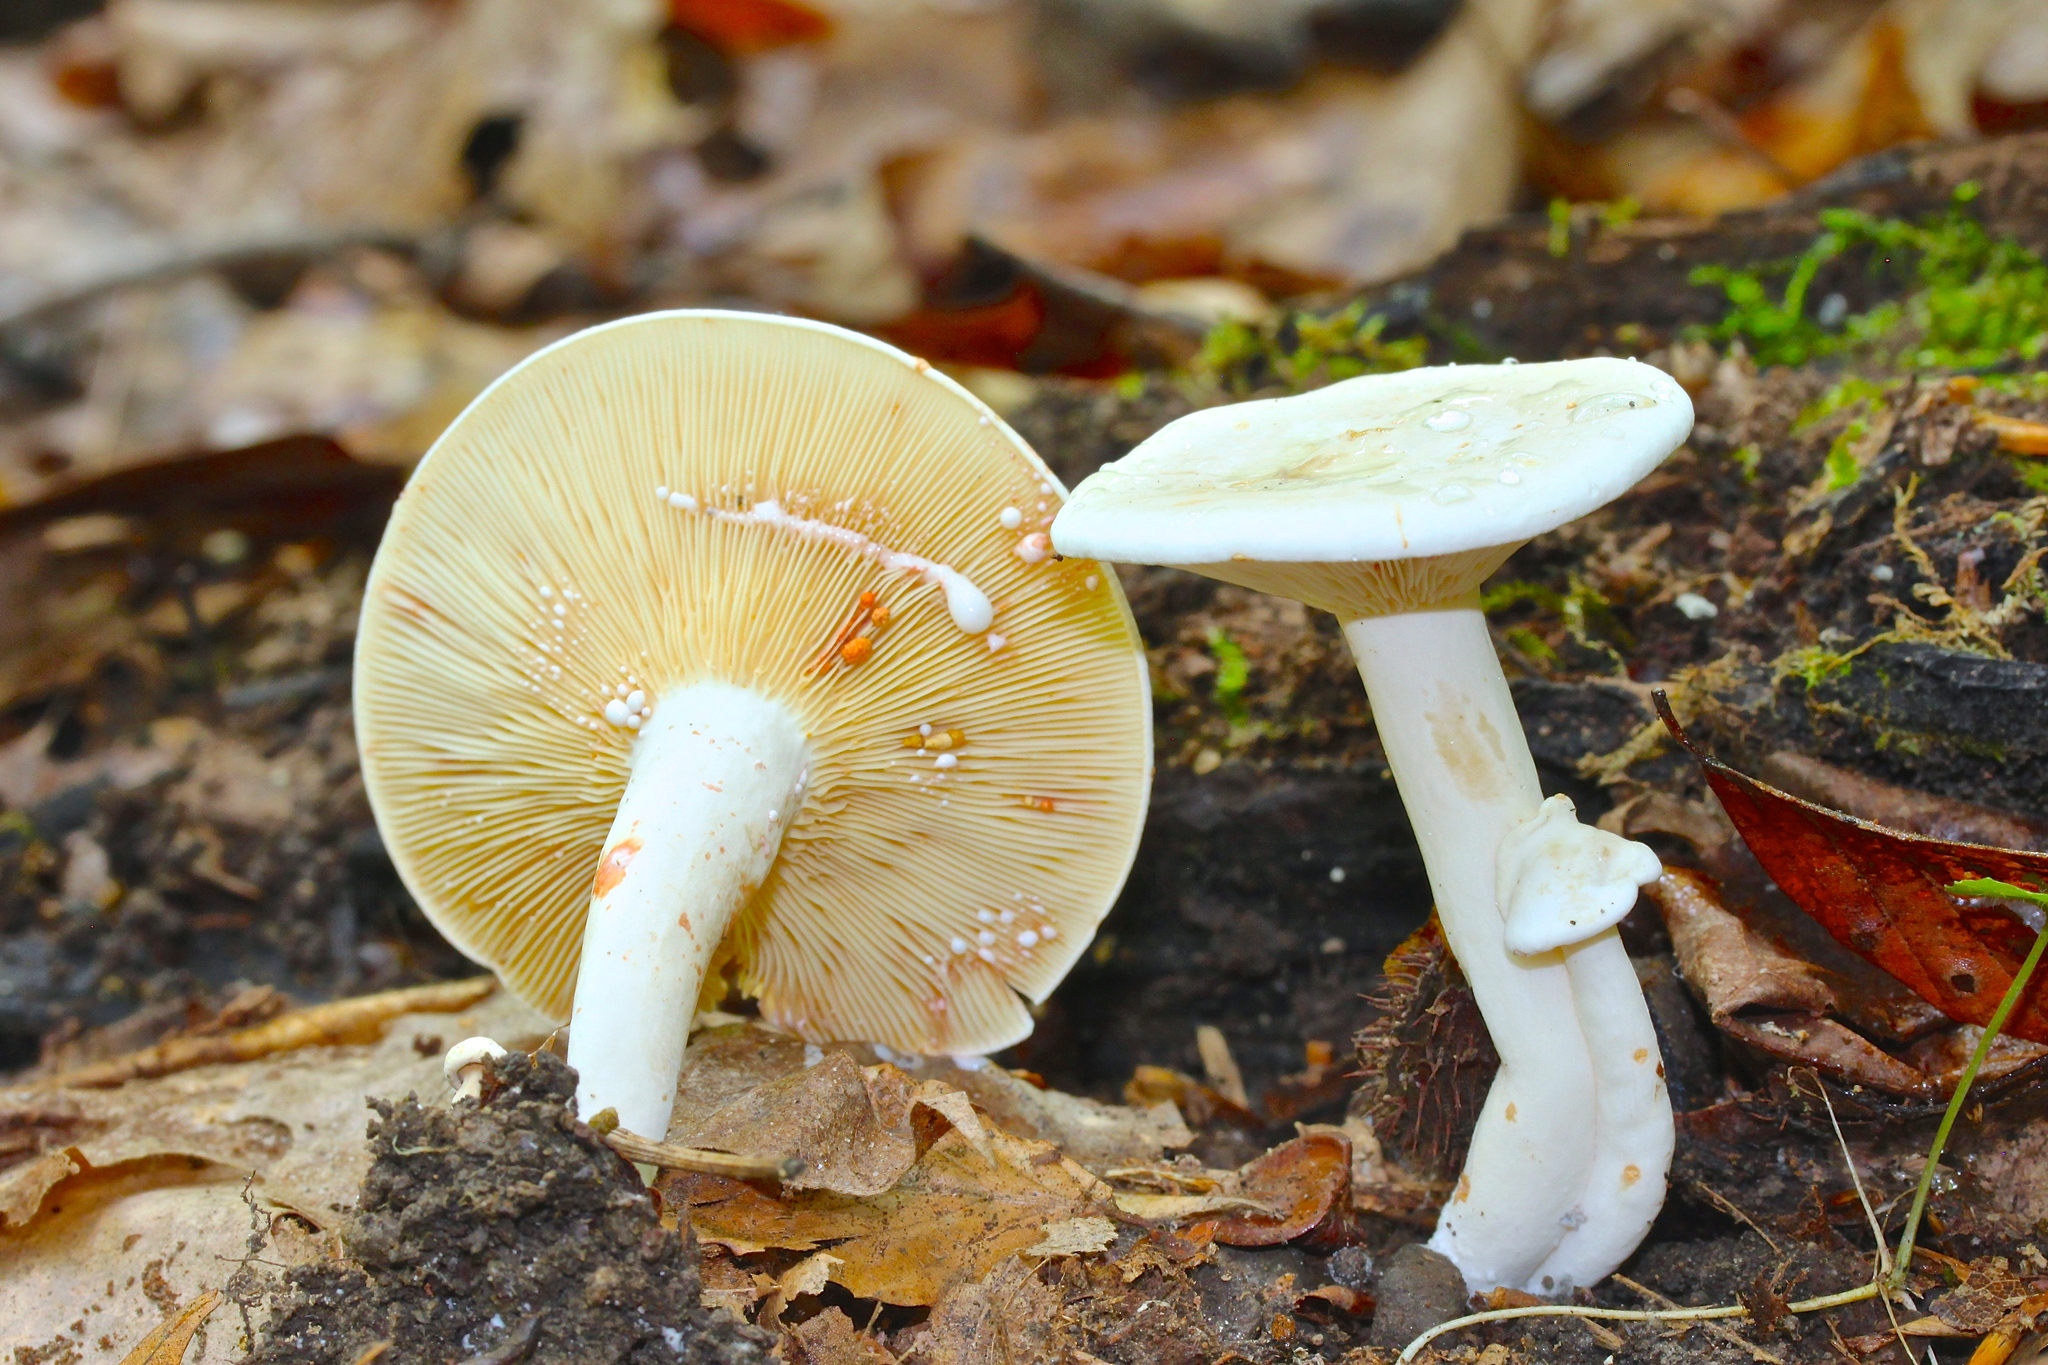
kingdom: Fungi
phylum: Basidiomycota
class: Agaricomycetes
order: Russulales
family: Russulaceae
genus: Lactarius
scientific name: Lactarius subvernalis
